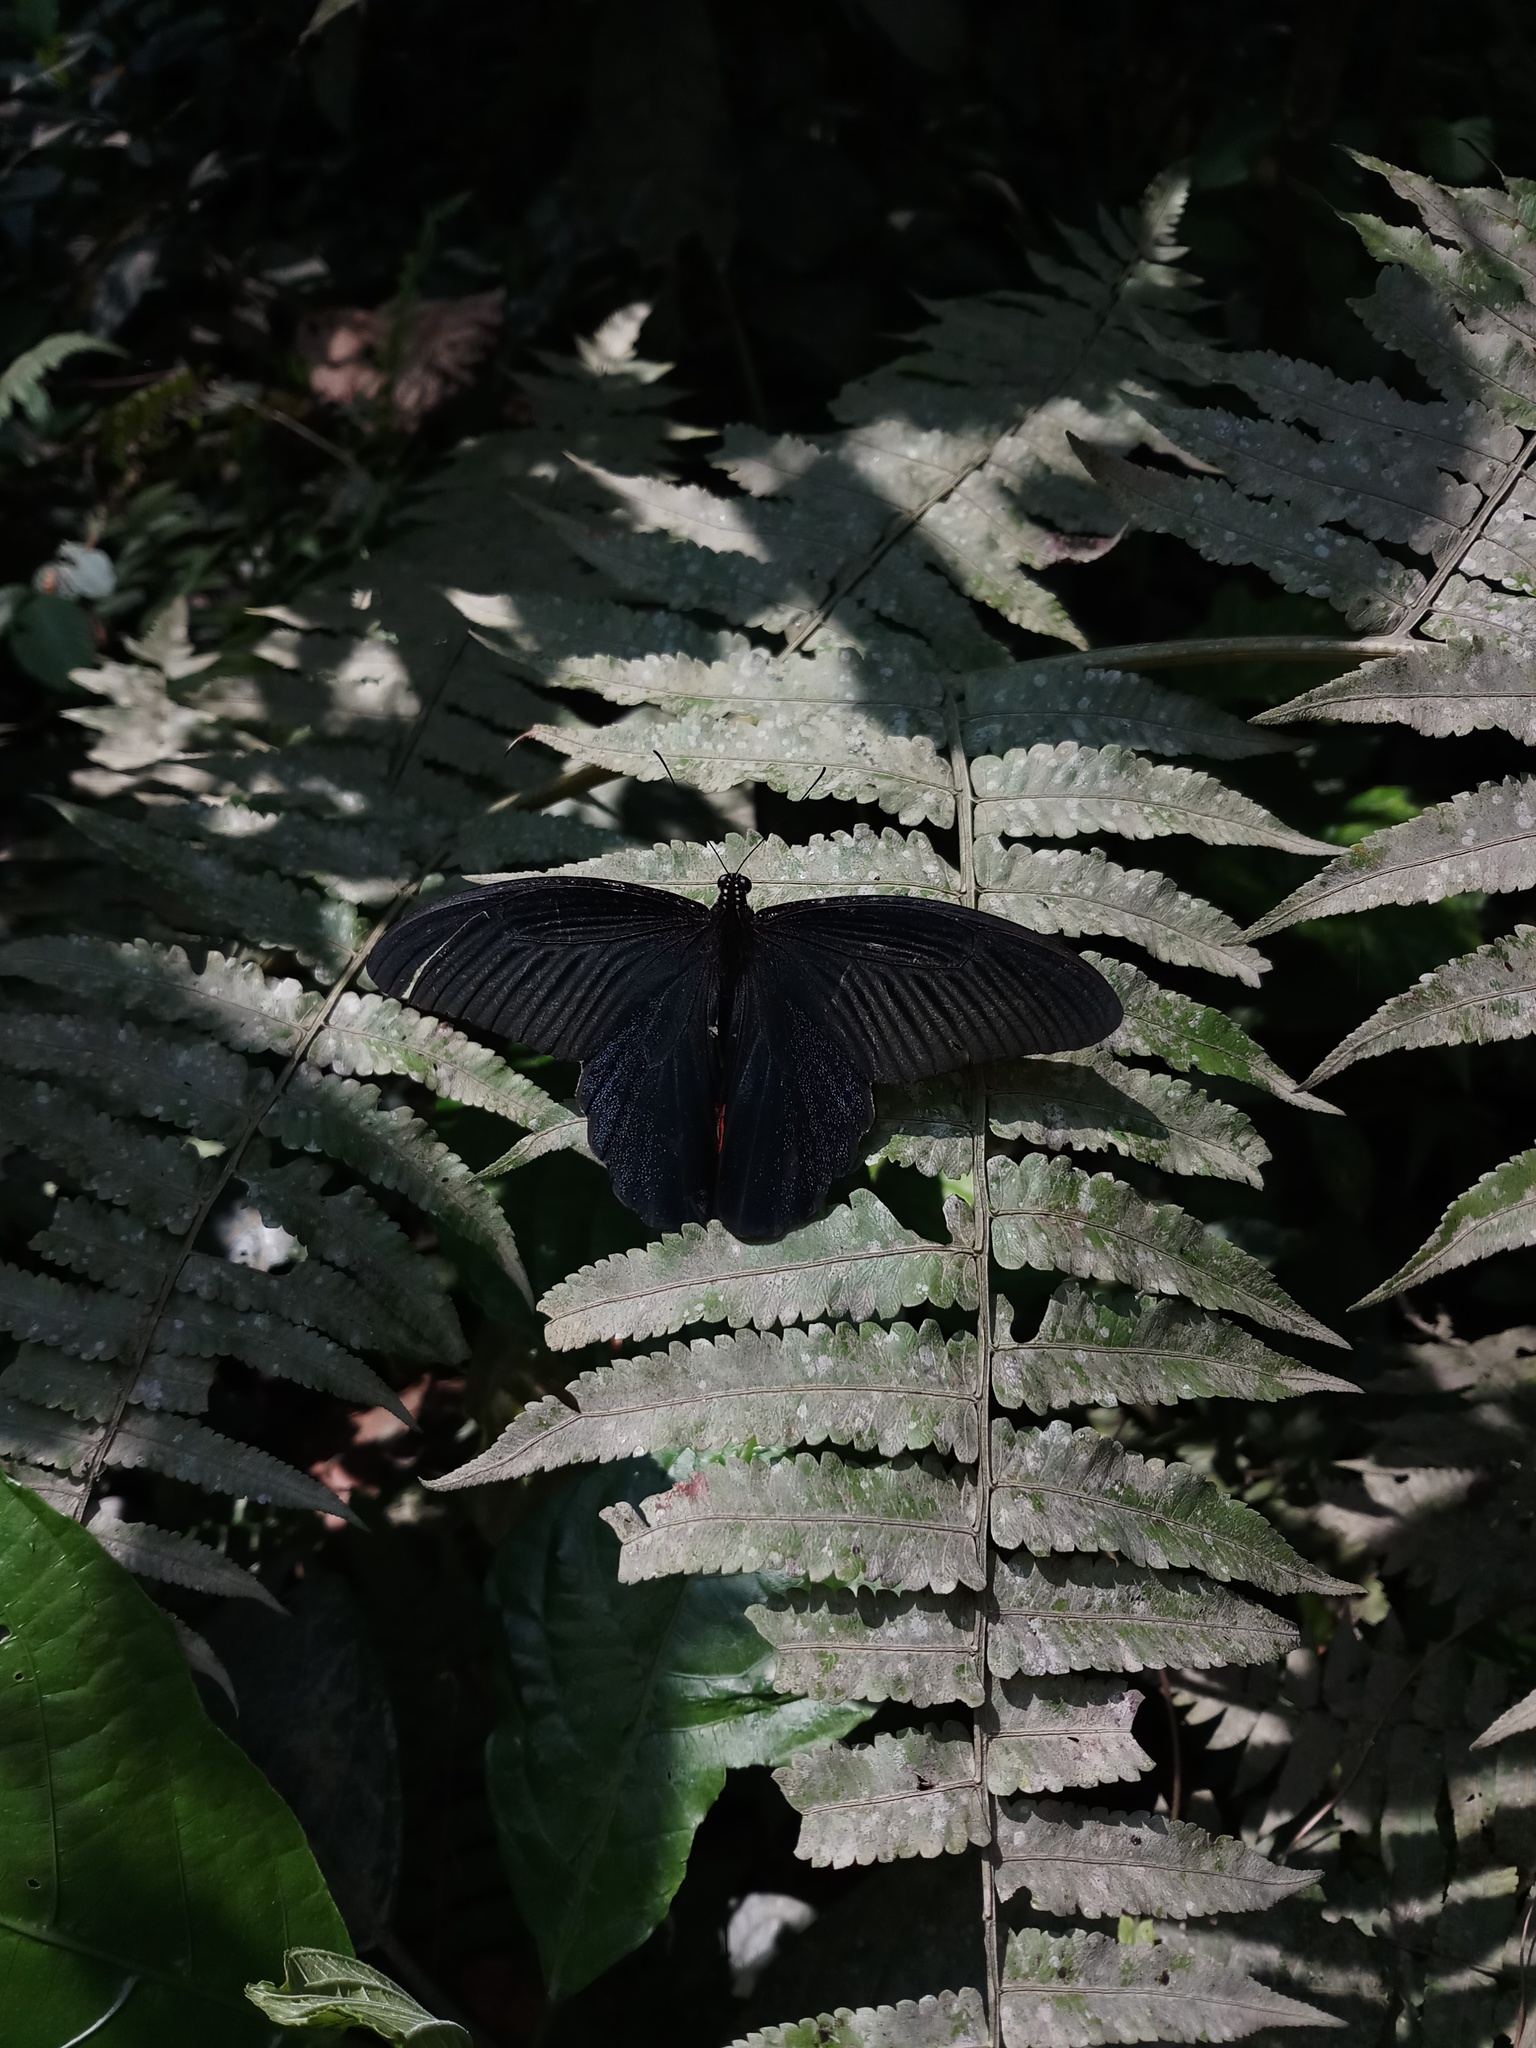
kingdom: Animalia
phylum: Arthropoda
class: Insecta
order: Lepidoptera
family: Papilionidae
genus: Papilio
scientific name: Papilio protenor
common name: Spangle
